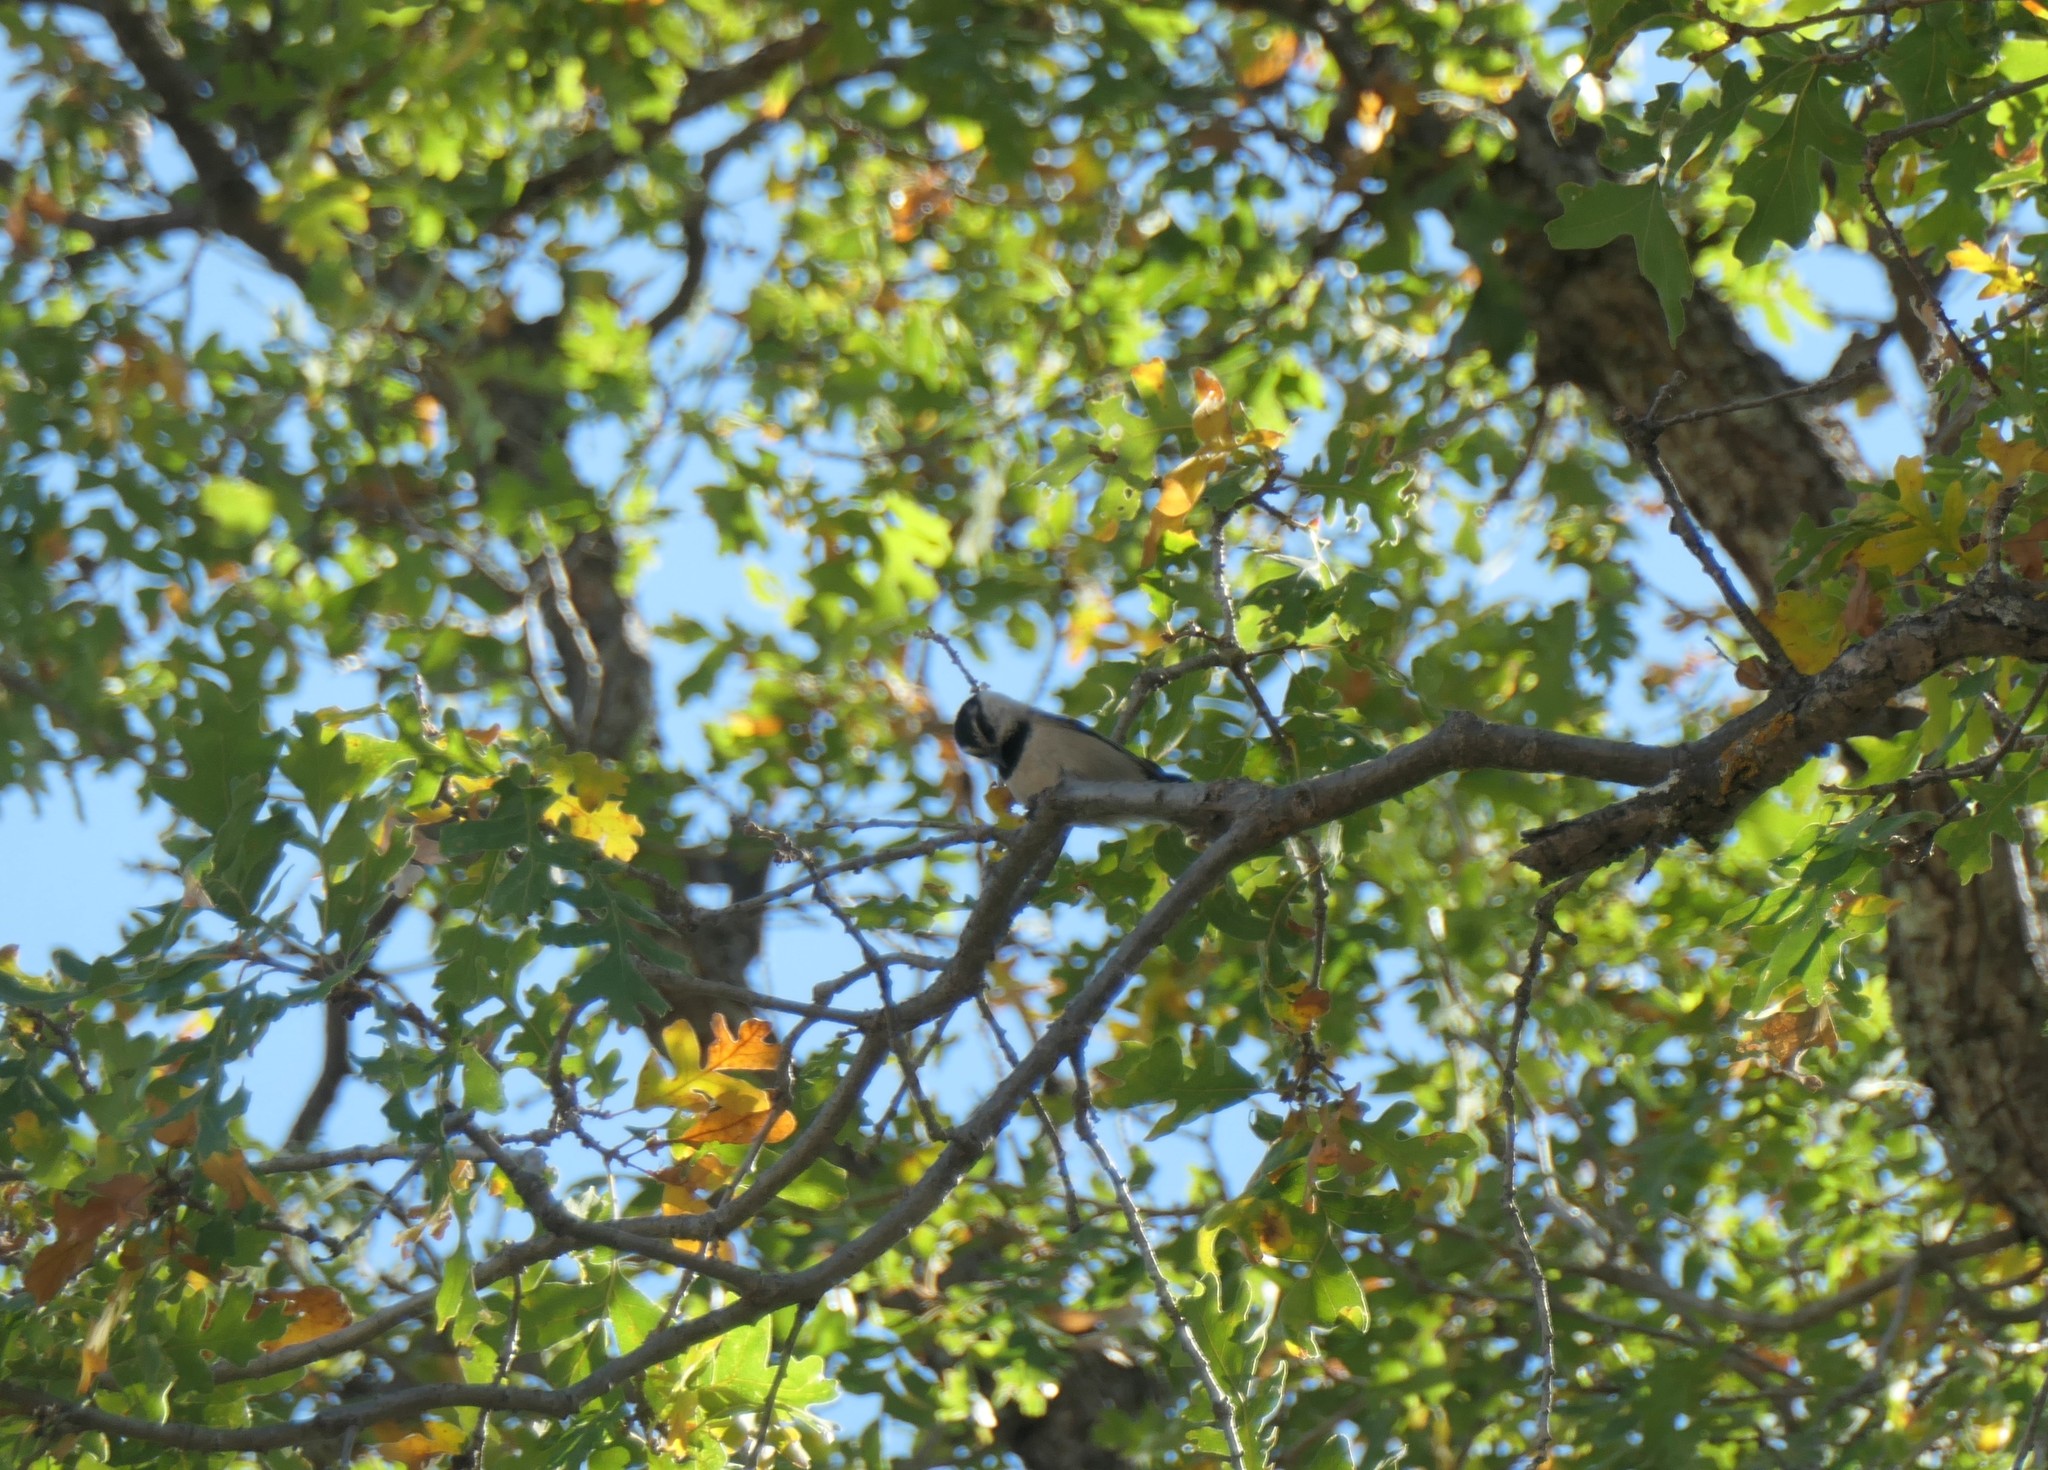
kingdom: Animalia
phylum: Chordata
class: Aves
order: Passeriformes
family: Paridae
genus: Poecile
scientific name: Poecile gambeli
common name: Mountain chickadee
